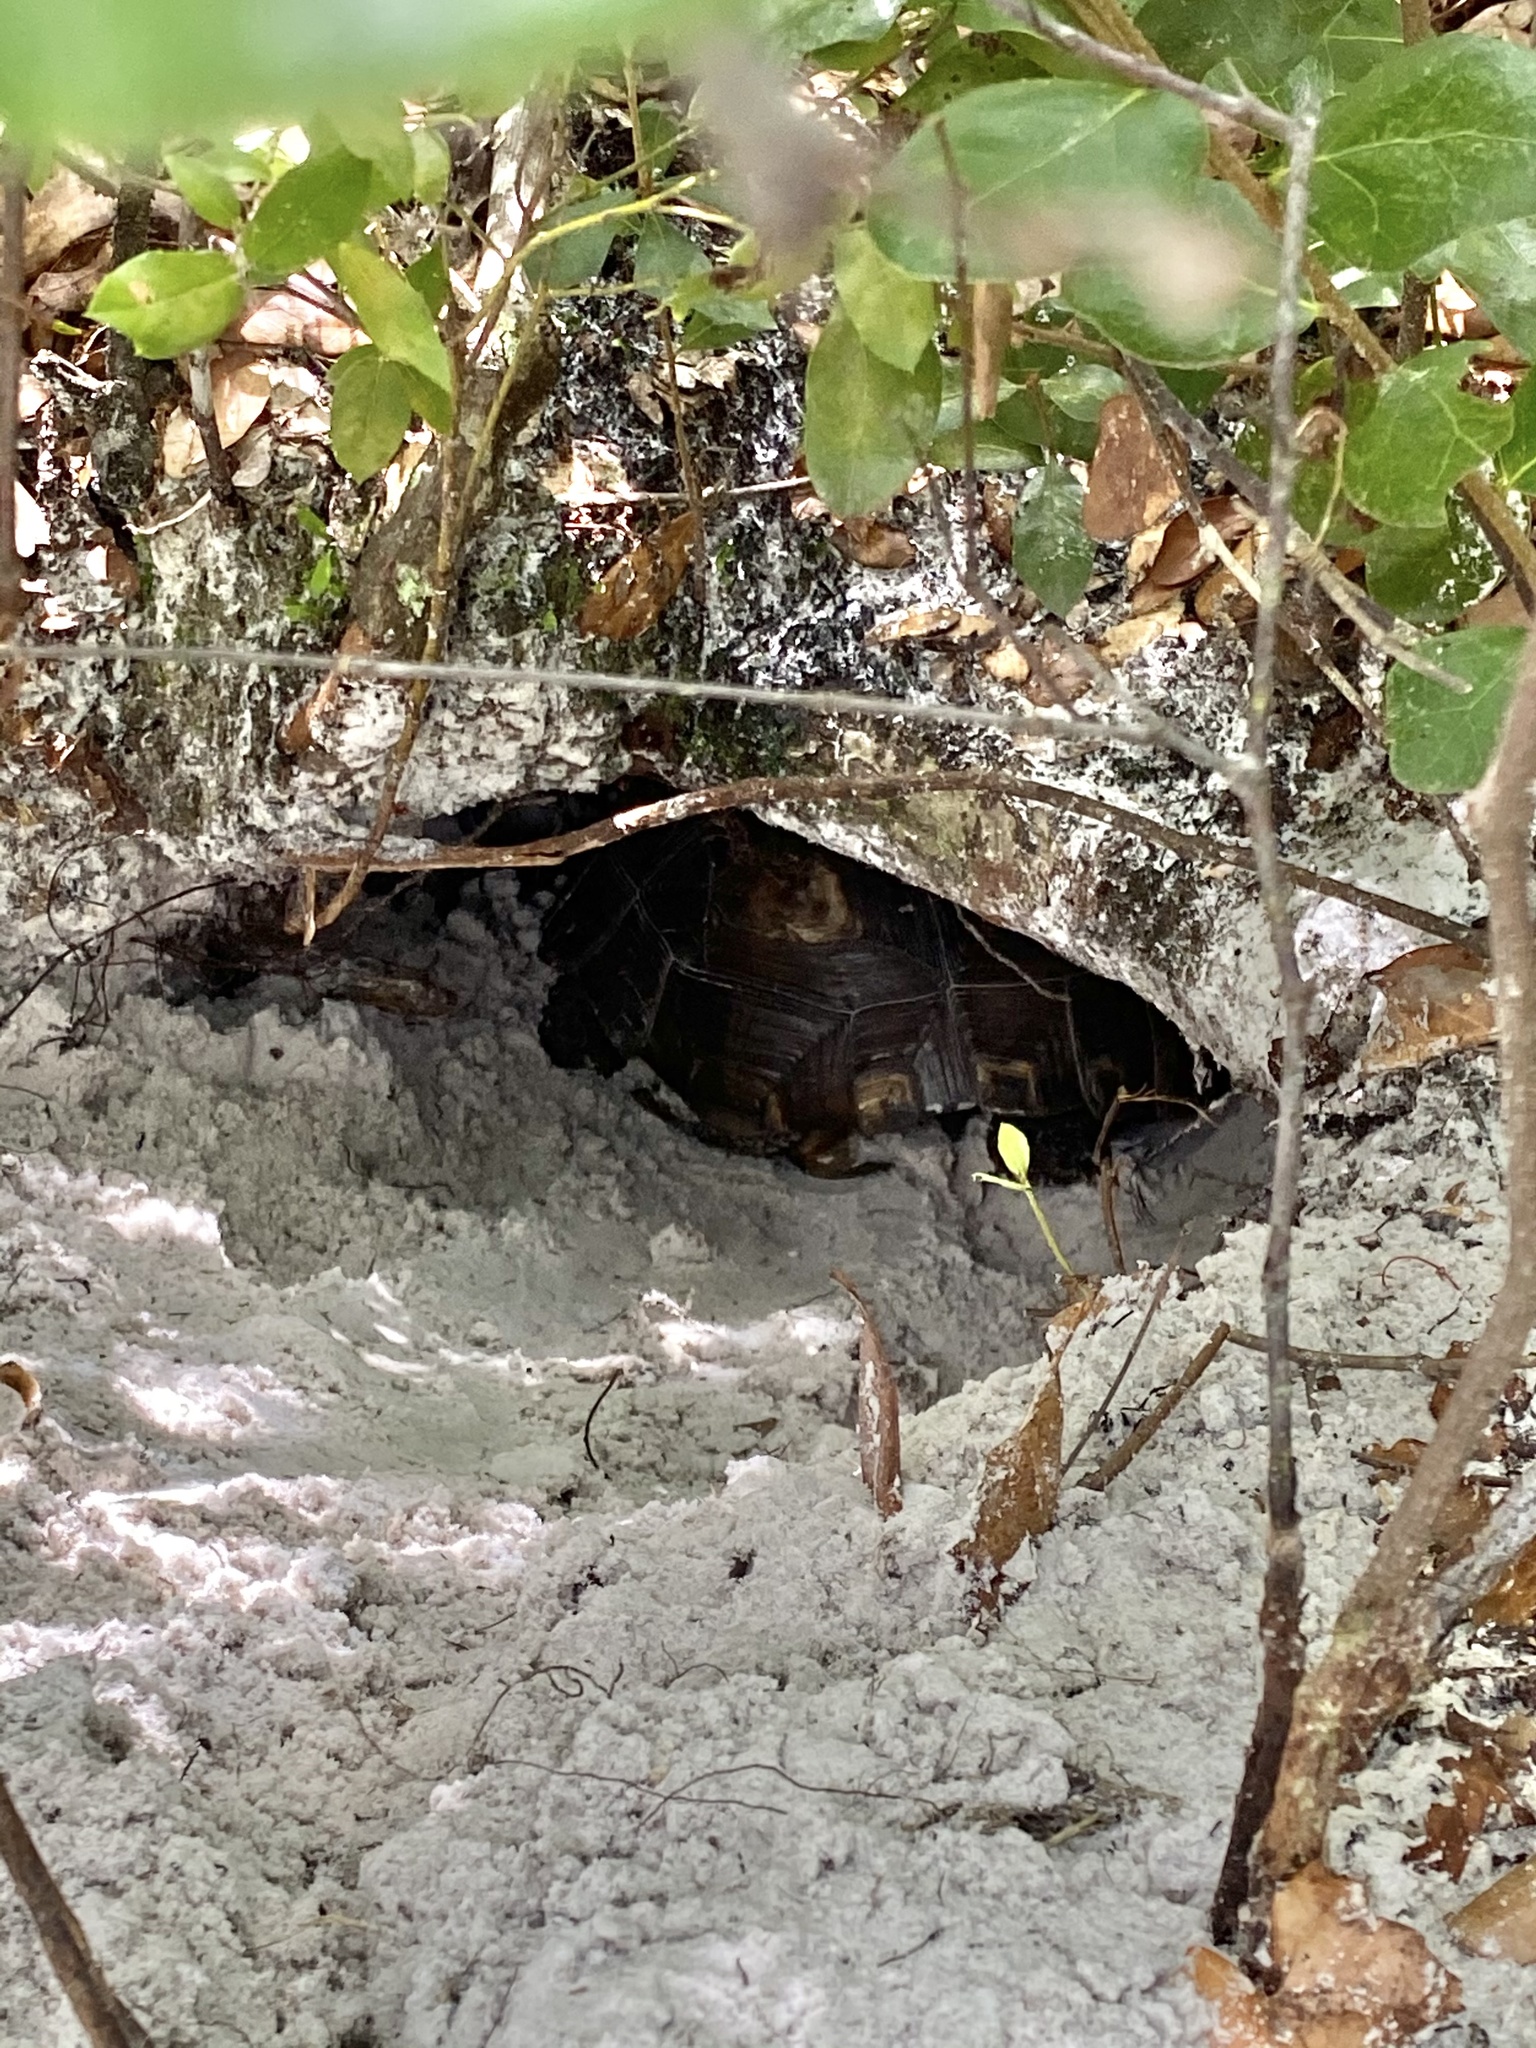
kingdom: Animalia
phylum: Chordata
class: Testudines
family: Testudinidae
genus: Gopherus
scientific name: Gopherus polyphemus
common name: Florida gopher tortoise
